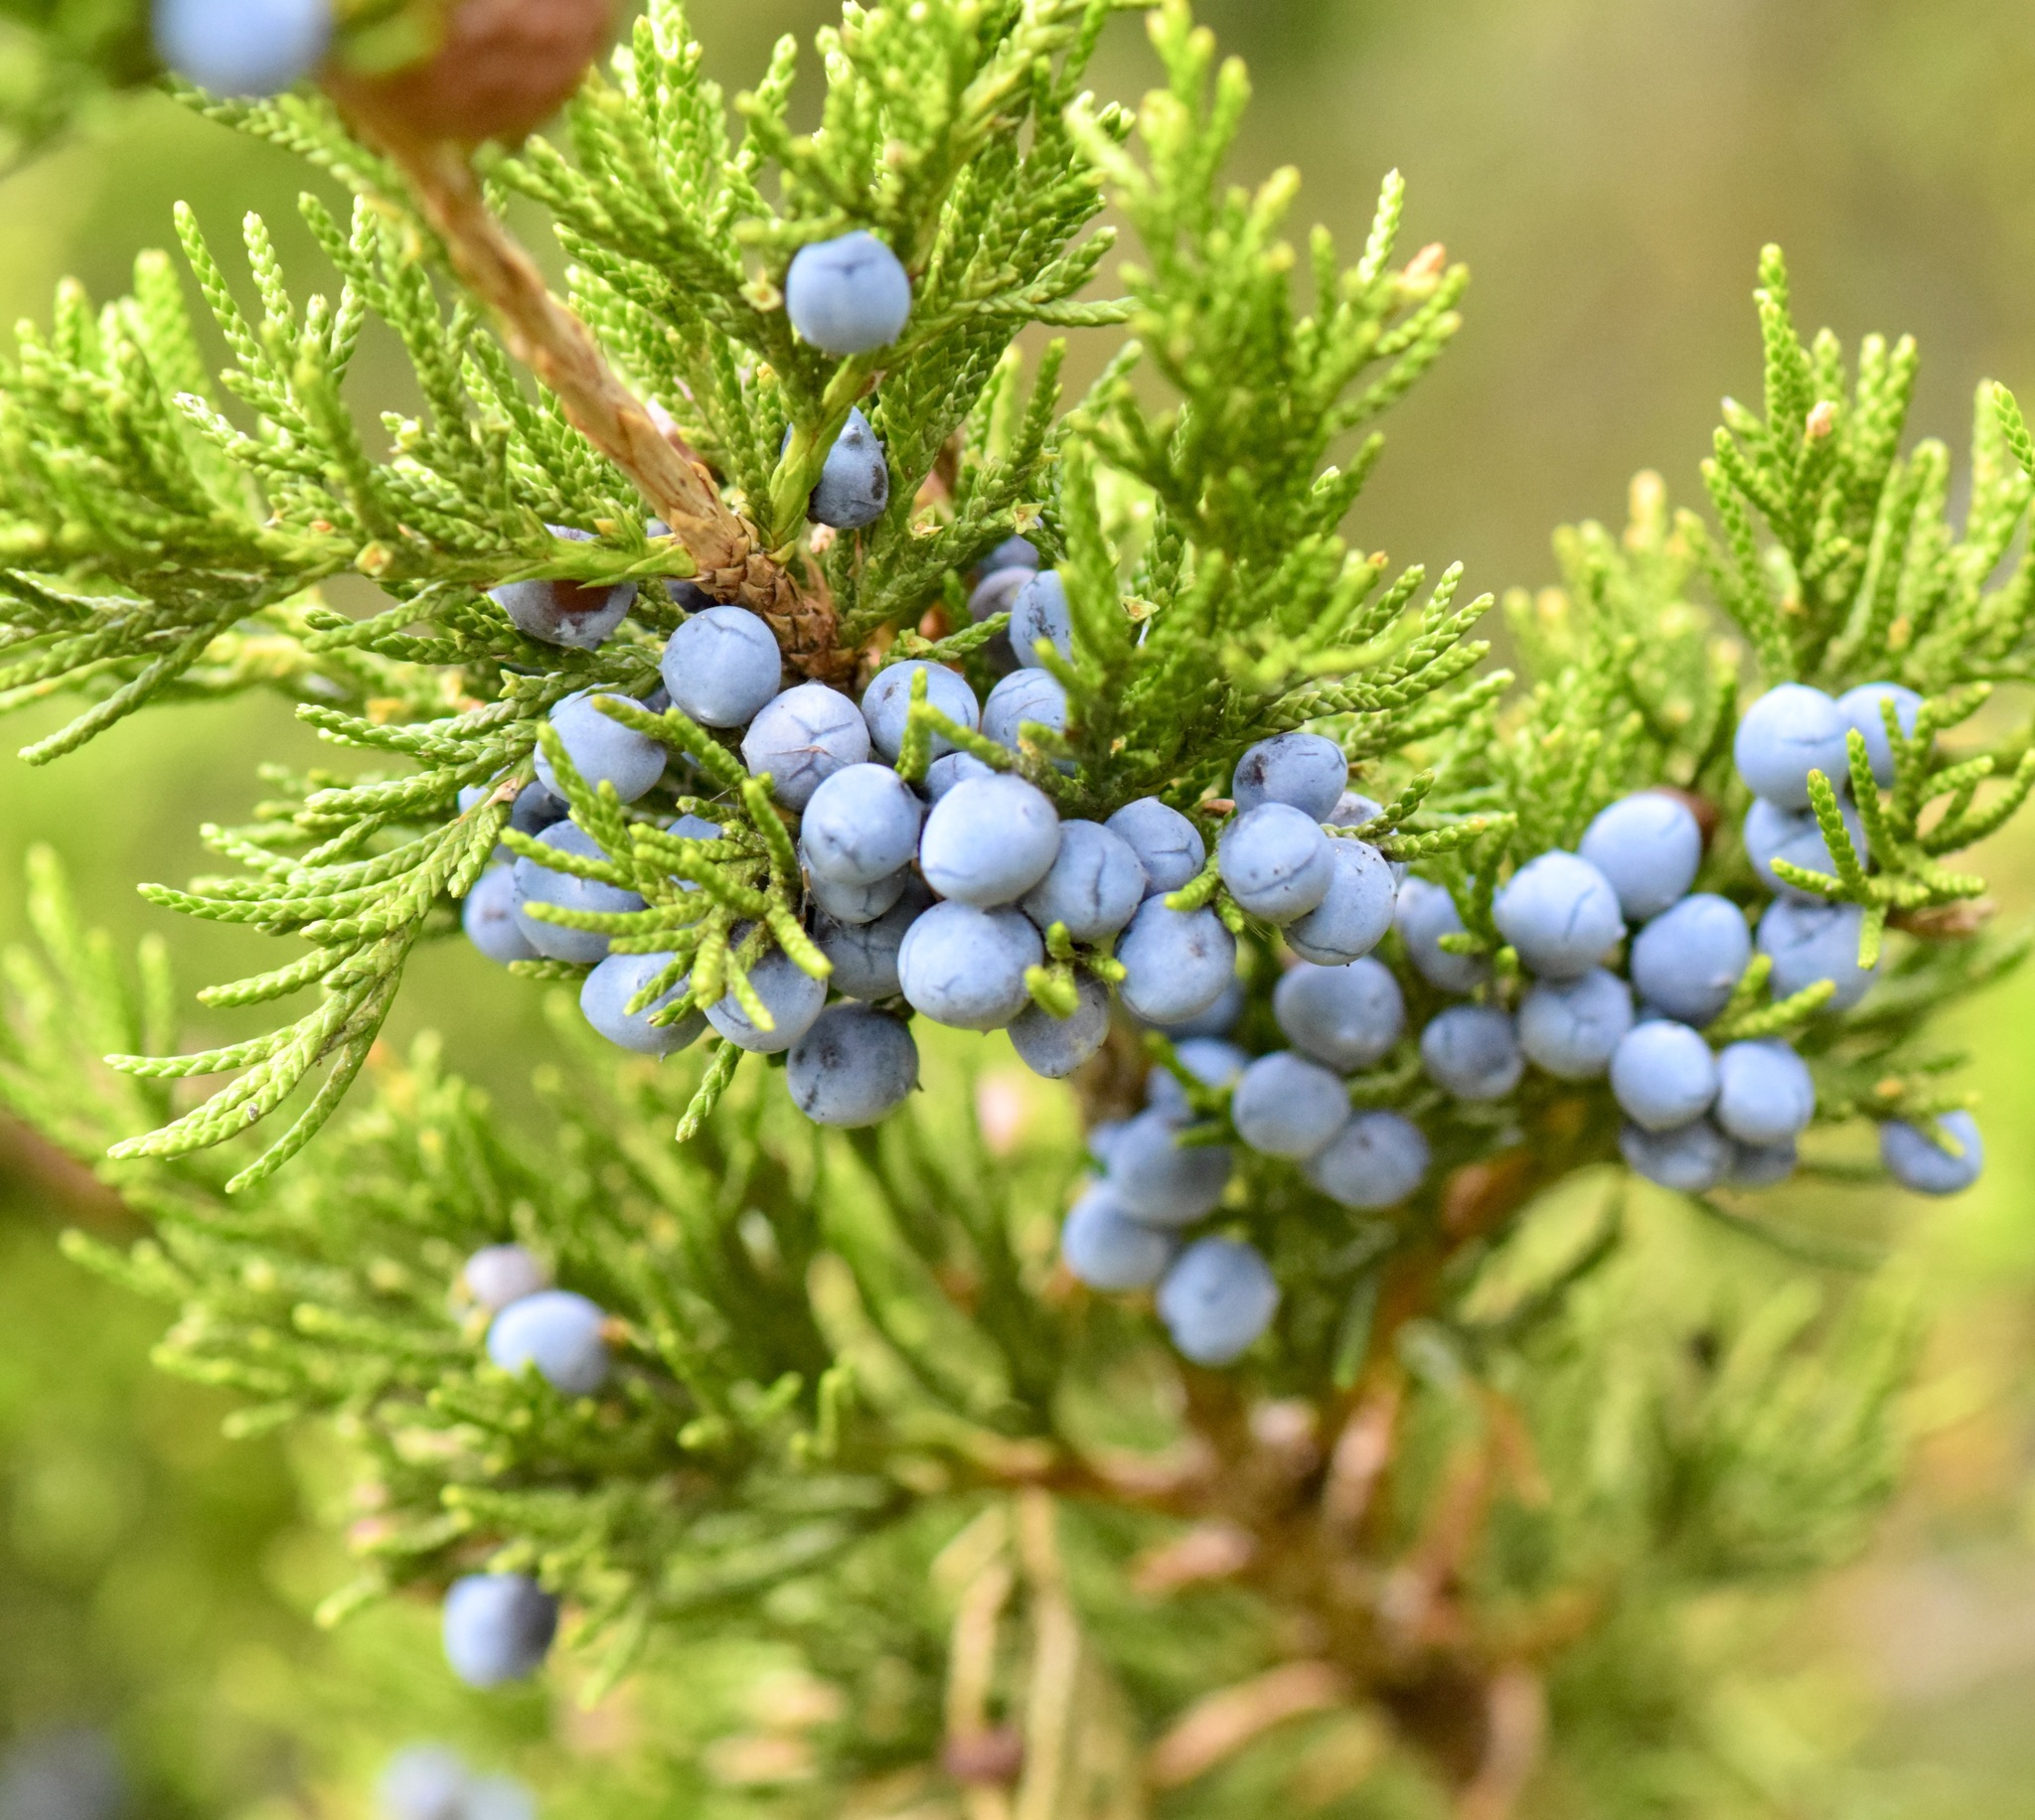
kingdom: Plantae
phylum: Tracheophyta
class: Pinopsida
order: Pinales
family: Cupressaceae
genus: Juniperus
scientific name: Juniperus virginiana
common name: Red juniper
